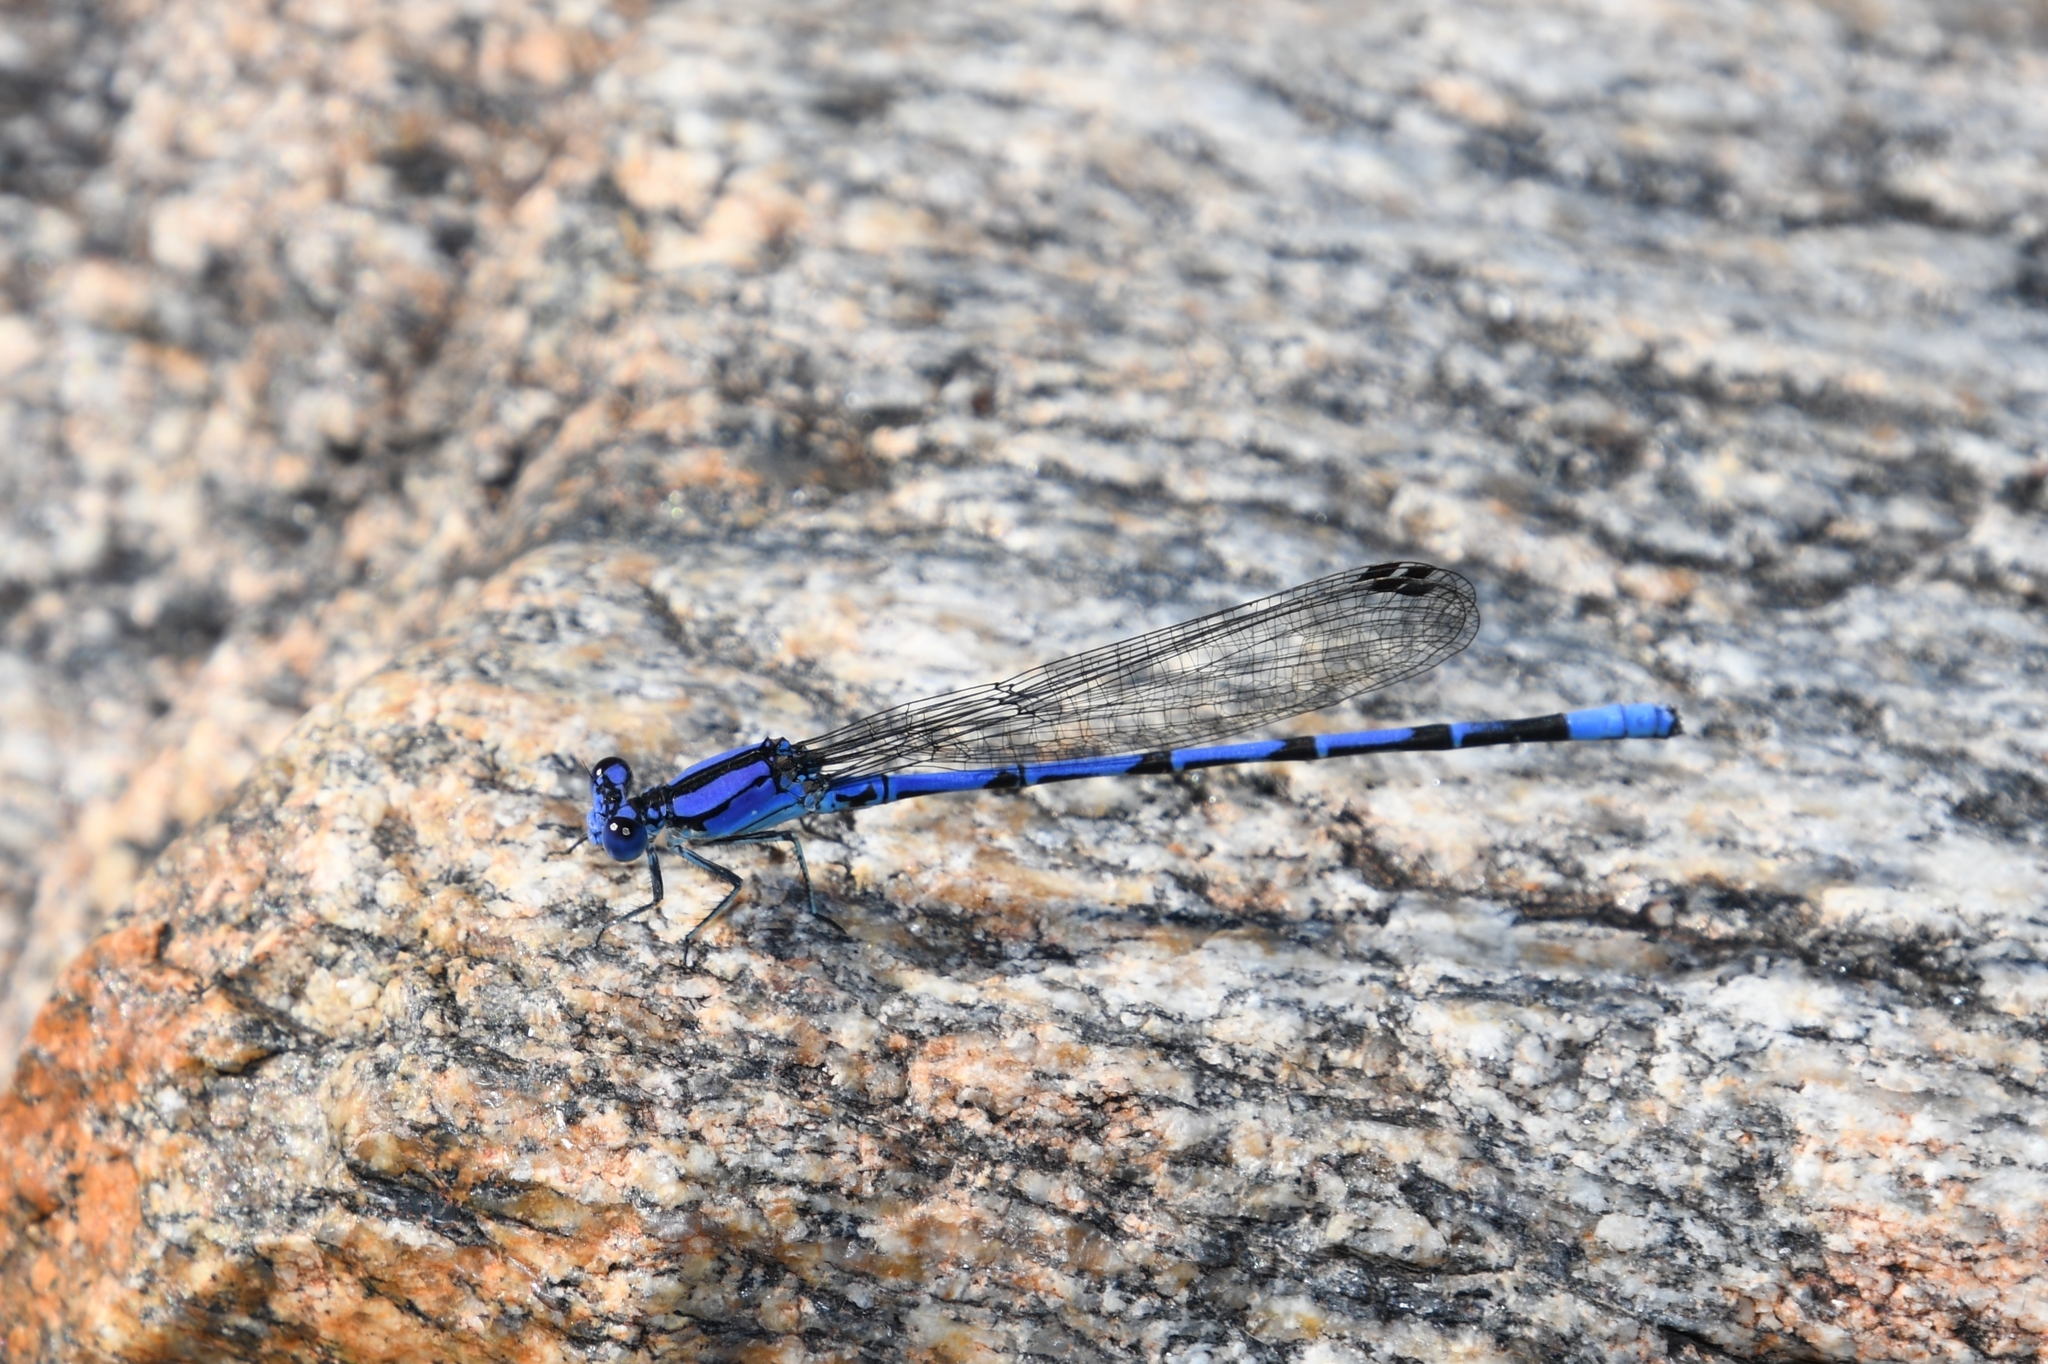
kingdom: Animalia
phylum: Arthropoda
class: Insecta
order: Odonata
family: Coenagrionidae
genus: Argia
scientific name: Argia extranea
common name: Spine-tipped dancer
